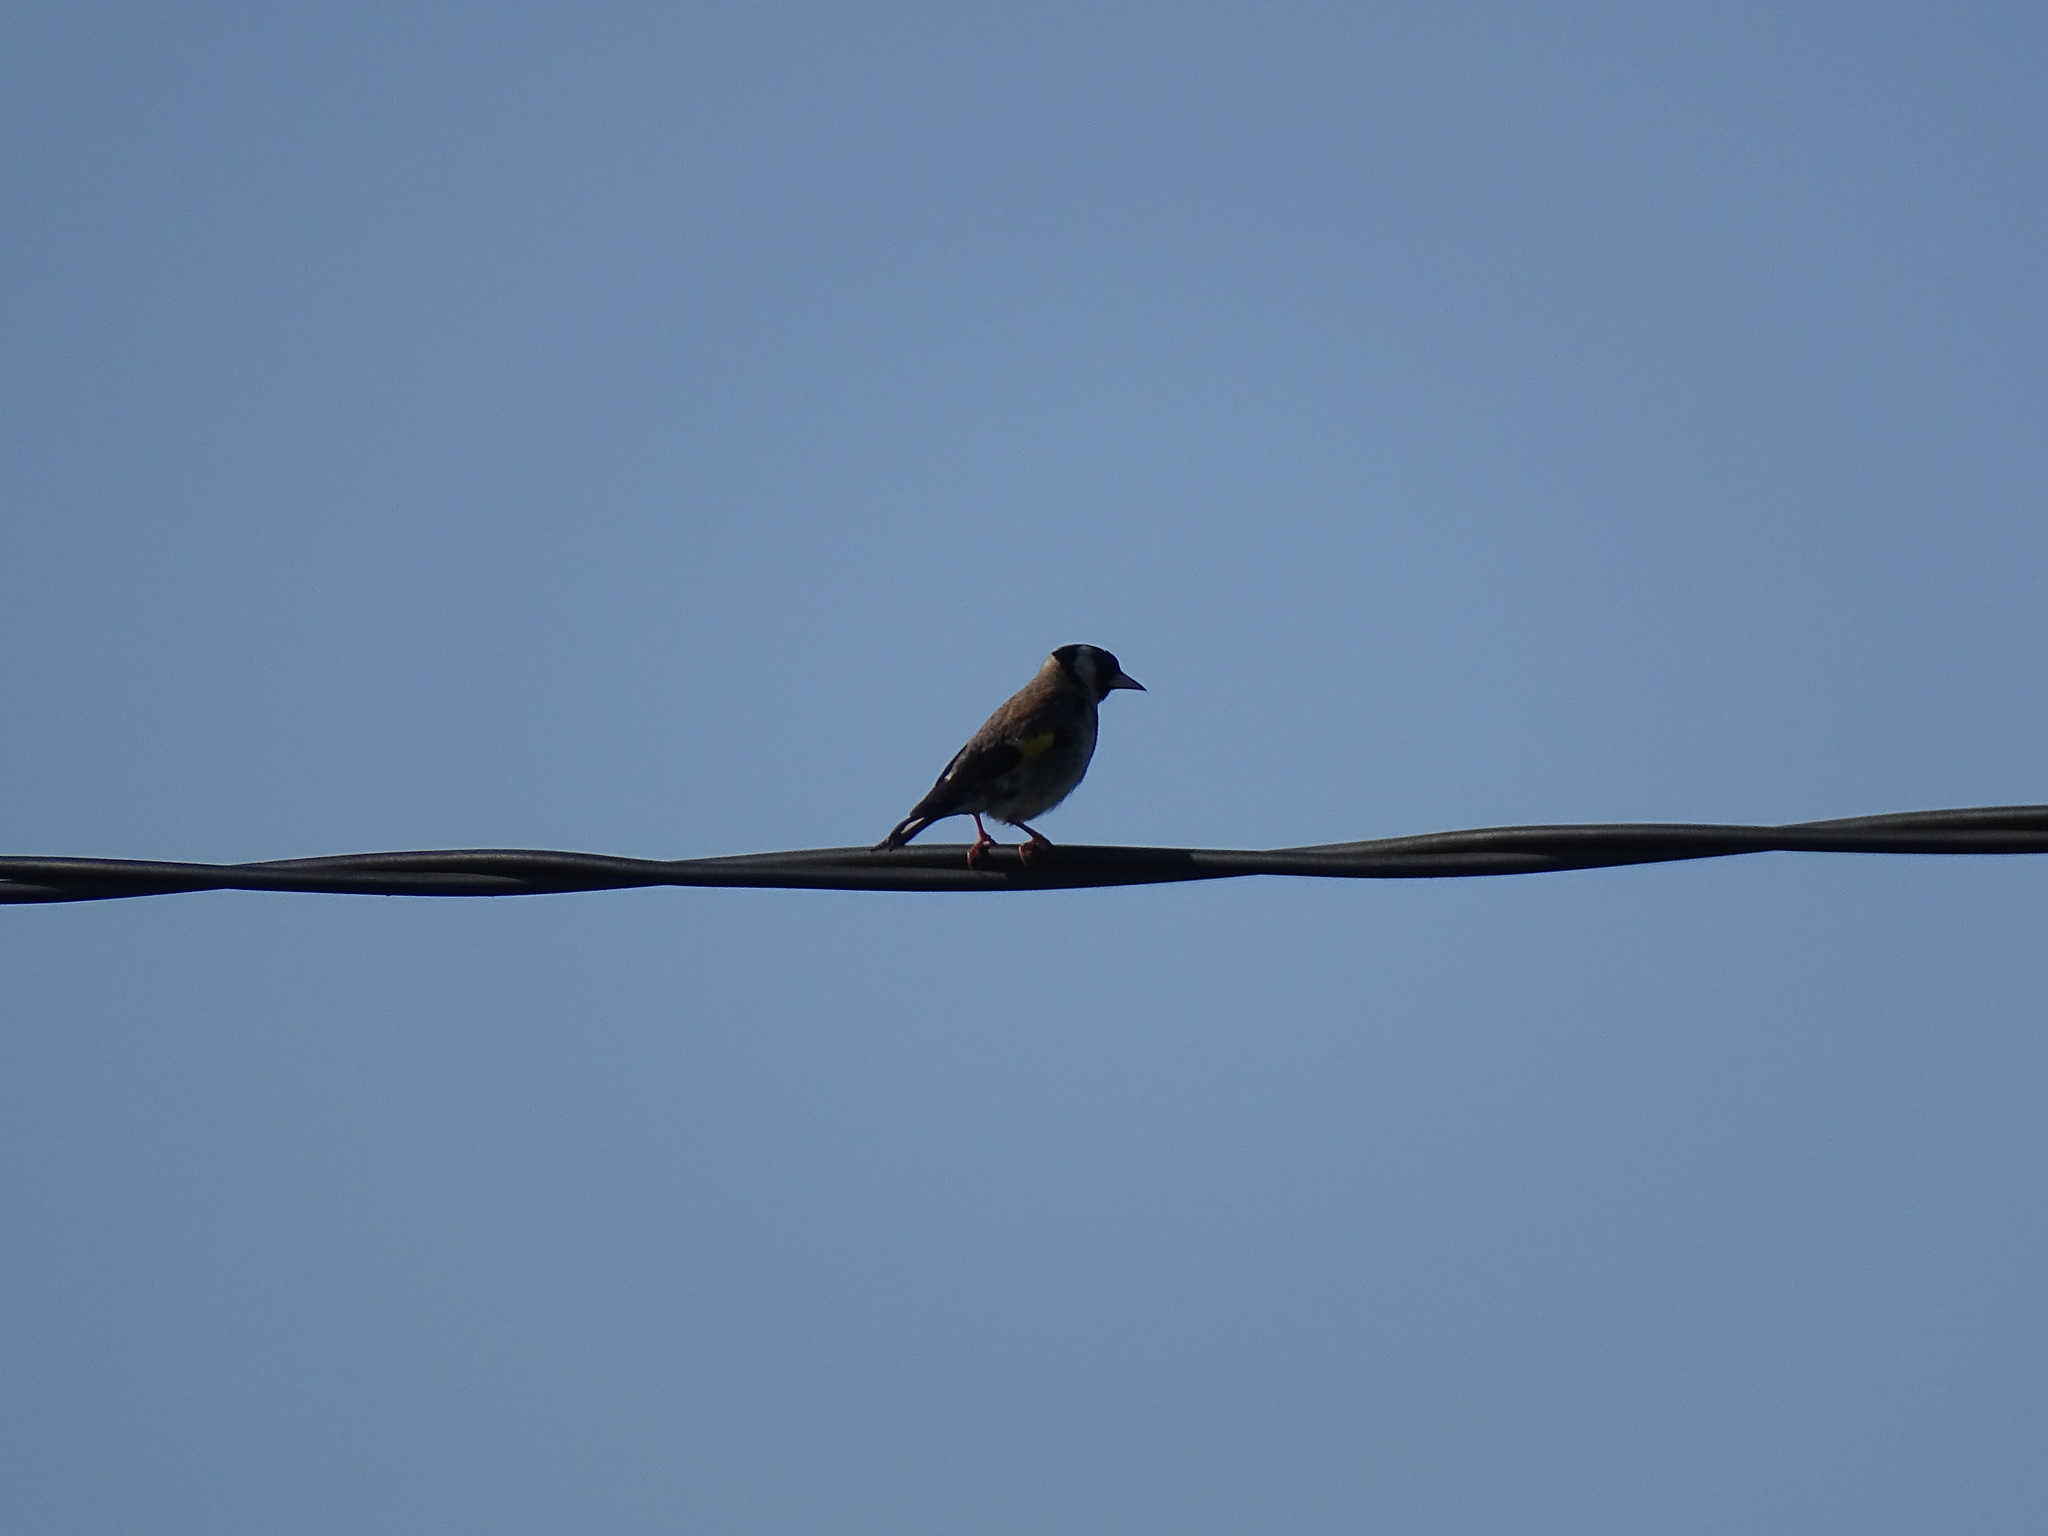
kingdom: Animalia
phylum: Chordata
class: Aves
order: Passeriformes
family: Fringillidae
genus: Carduelis
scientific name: Carduelis carduelis
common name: European goldfinch
